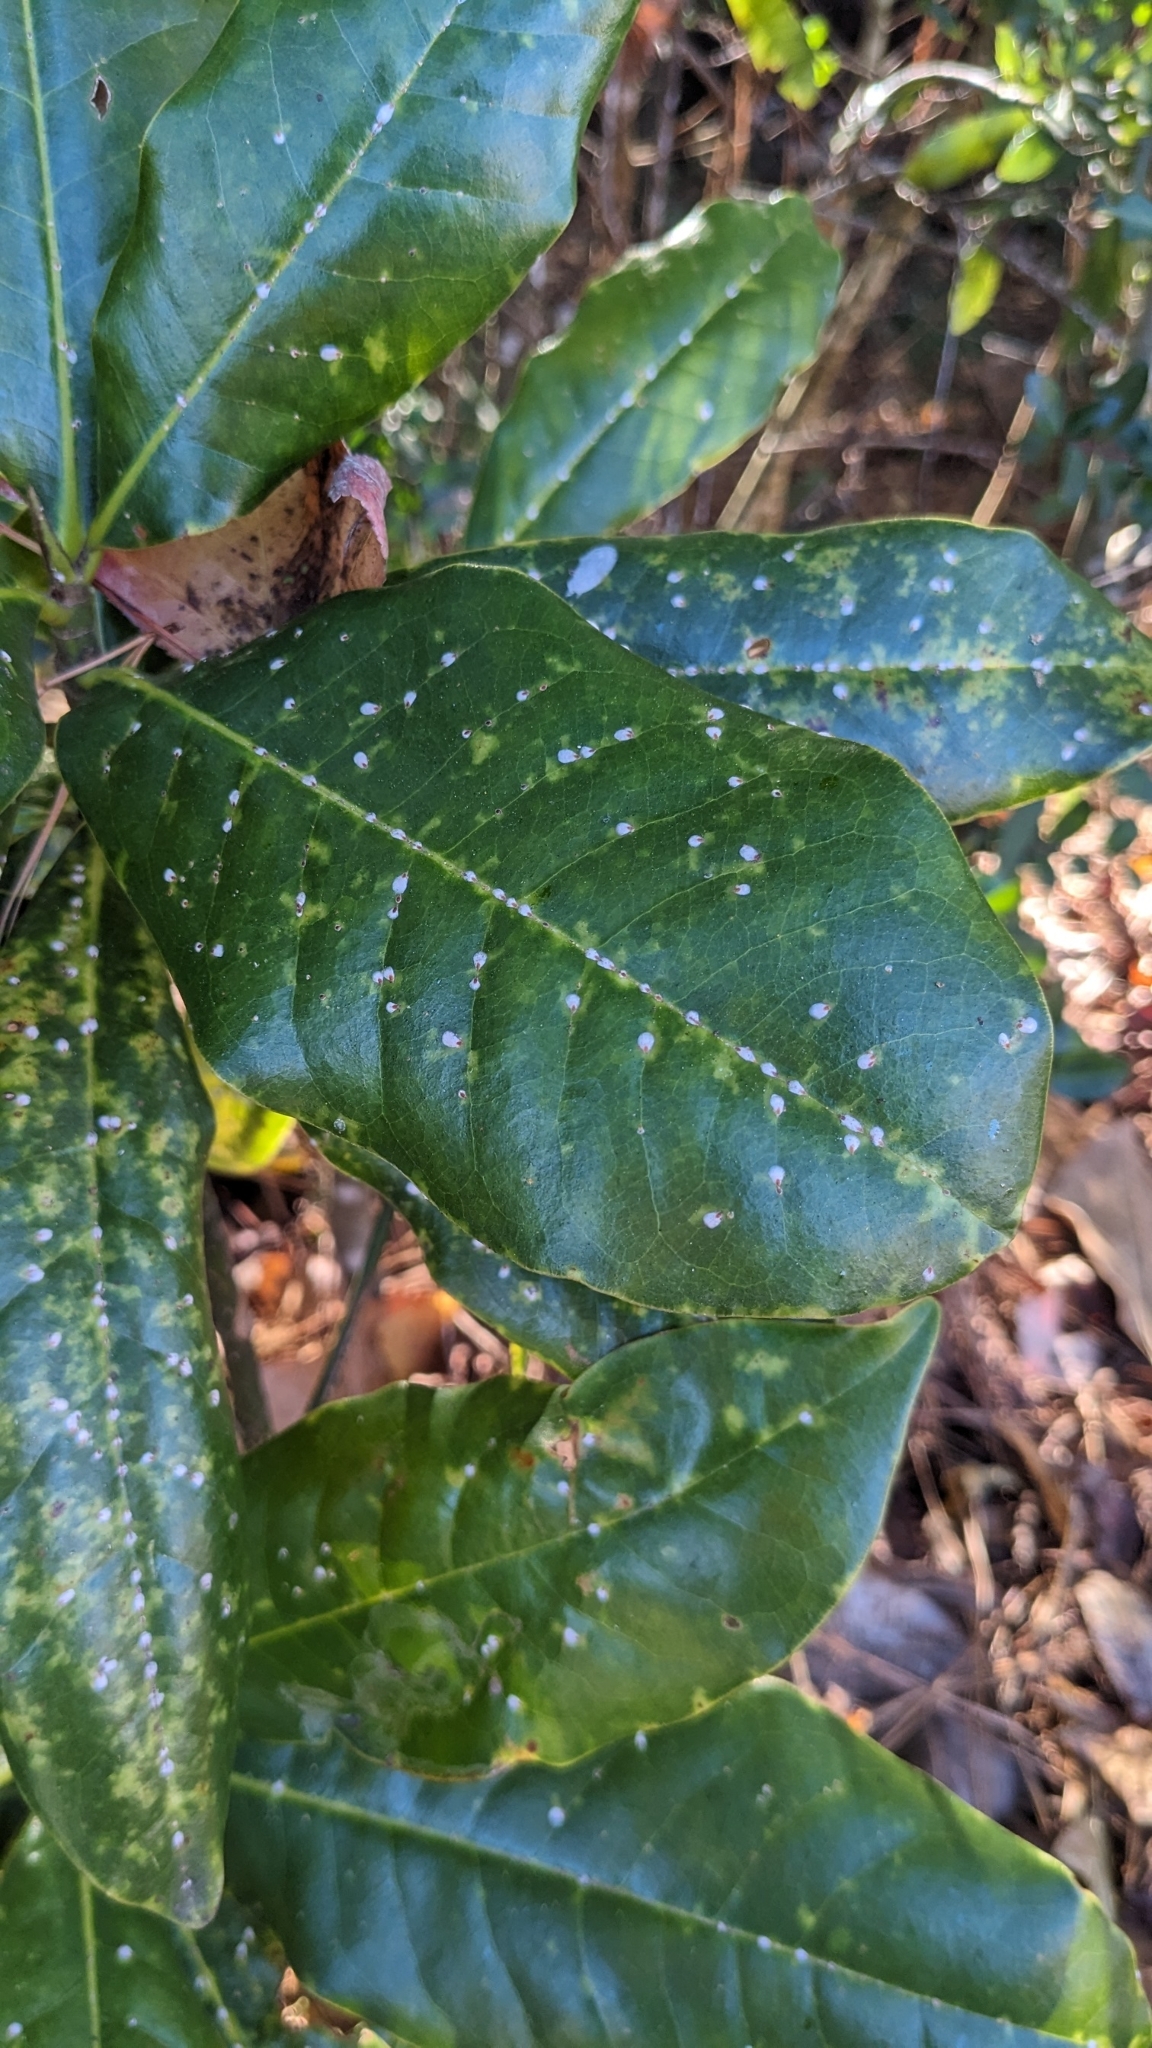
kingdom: Animalia
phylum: Arthropoda
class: Insecta
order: Hemiptera
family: Diaspididae
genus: Pseudaulacaspis
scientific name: Pseudaulacaspis cockerelli
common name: False oleander scale
